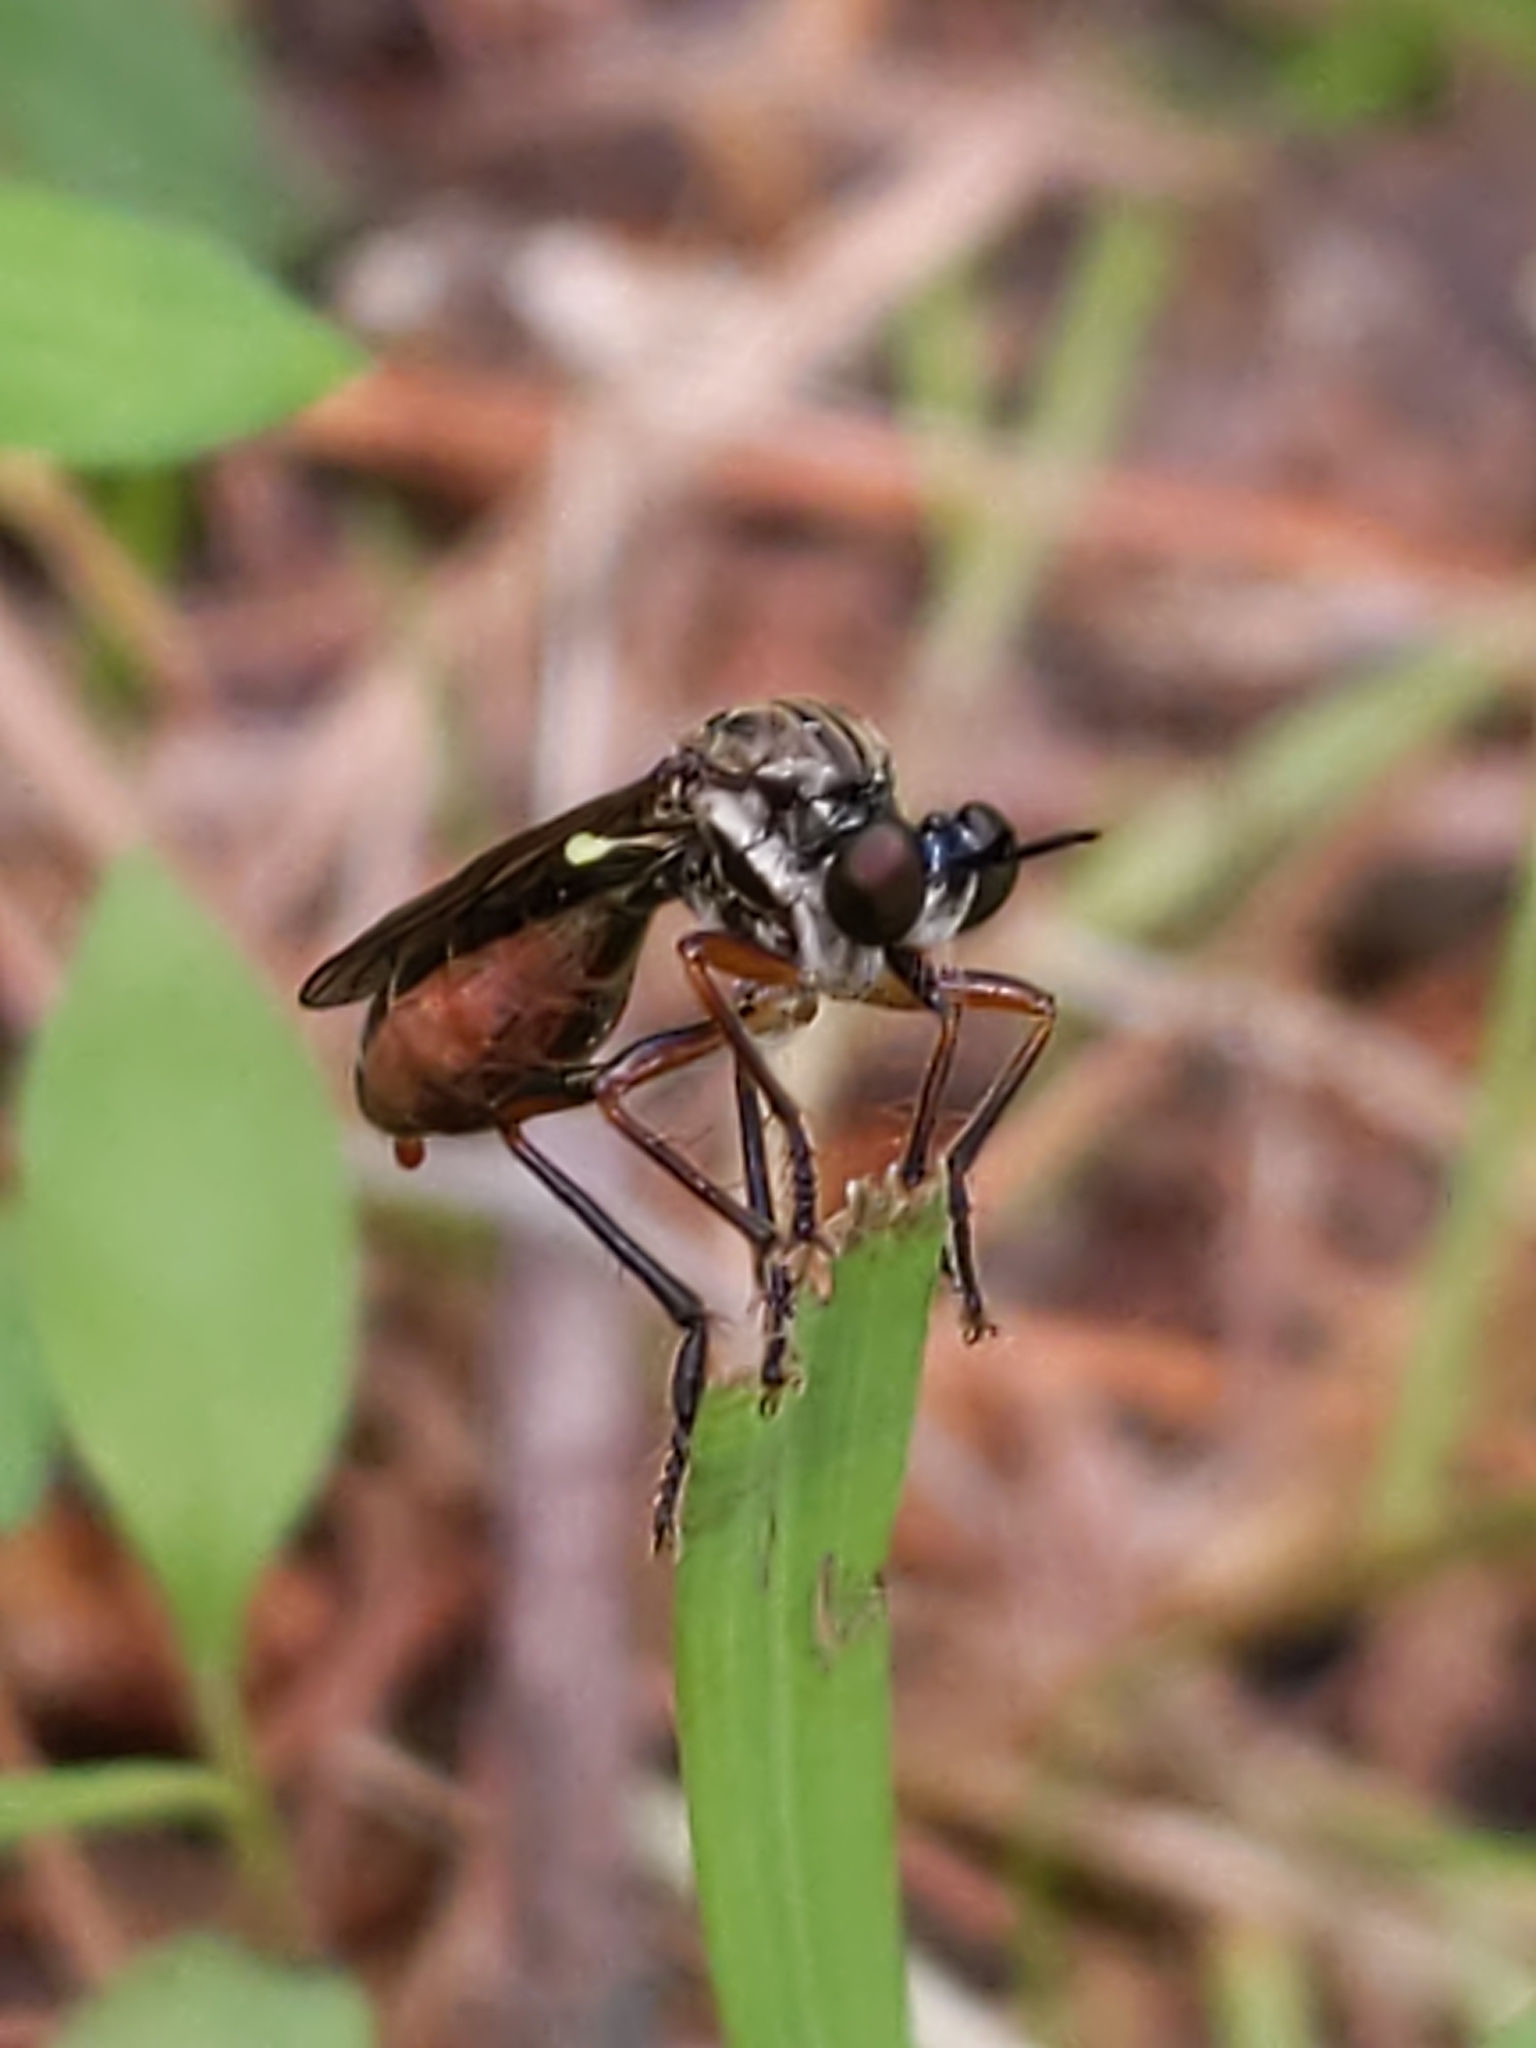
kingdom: Animalia
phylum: Arthropoda
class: Insecta
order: Diptera
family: Asilidae
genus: Dioctria
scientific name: Dioctria hyalipennis
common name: Stripe-legged robberfly
